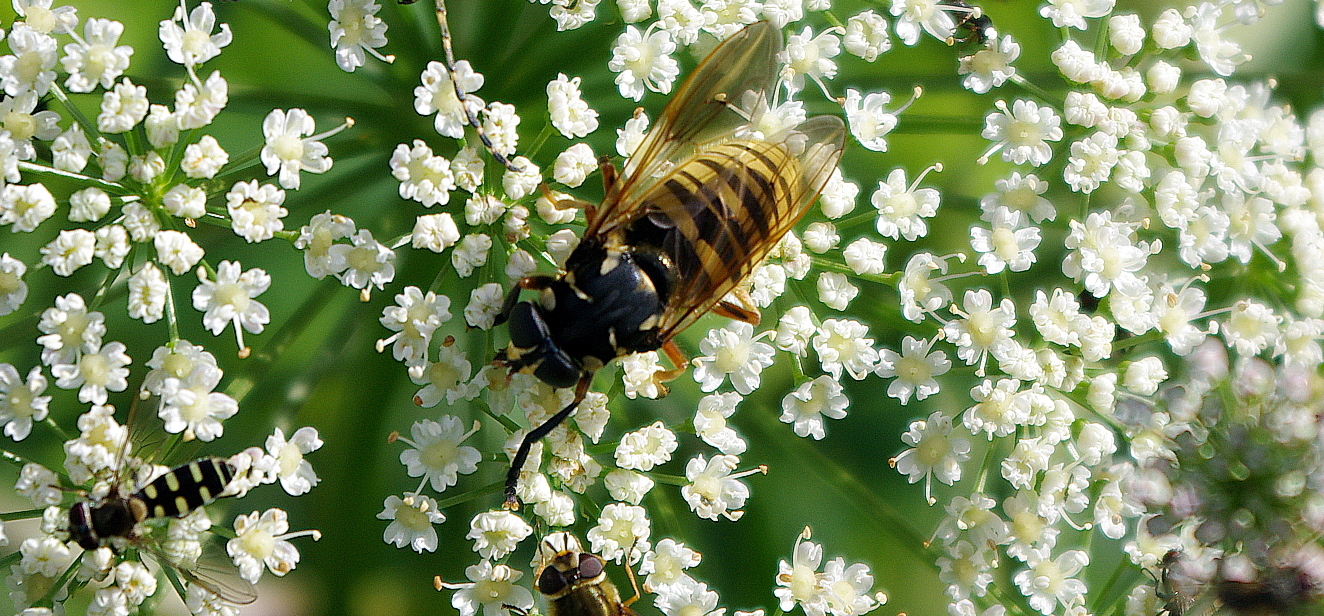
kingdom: Animalia
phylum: Arthropoda
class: Insecta
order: Diptera
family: Syrphidae
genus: Temnostoma
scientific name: Temnostoma vespiforme
